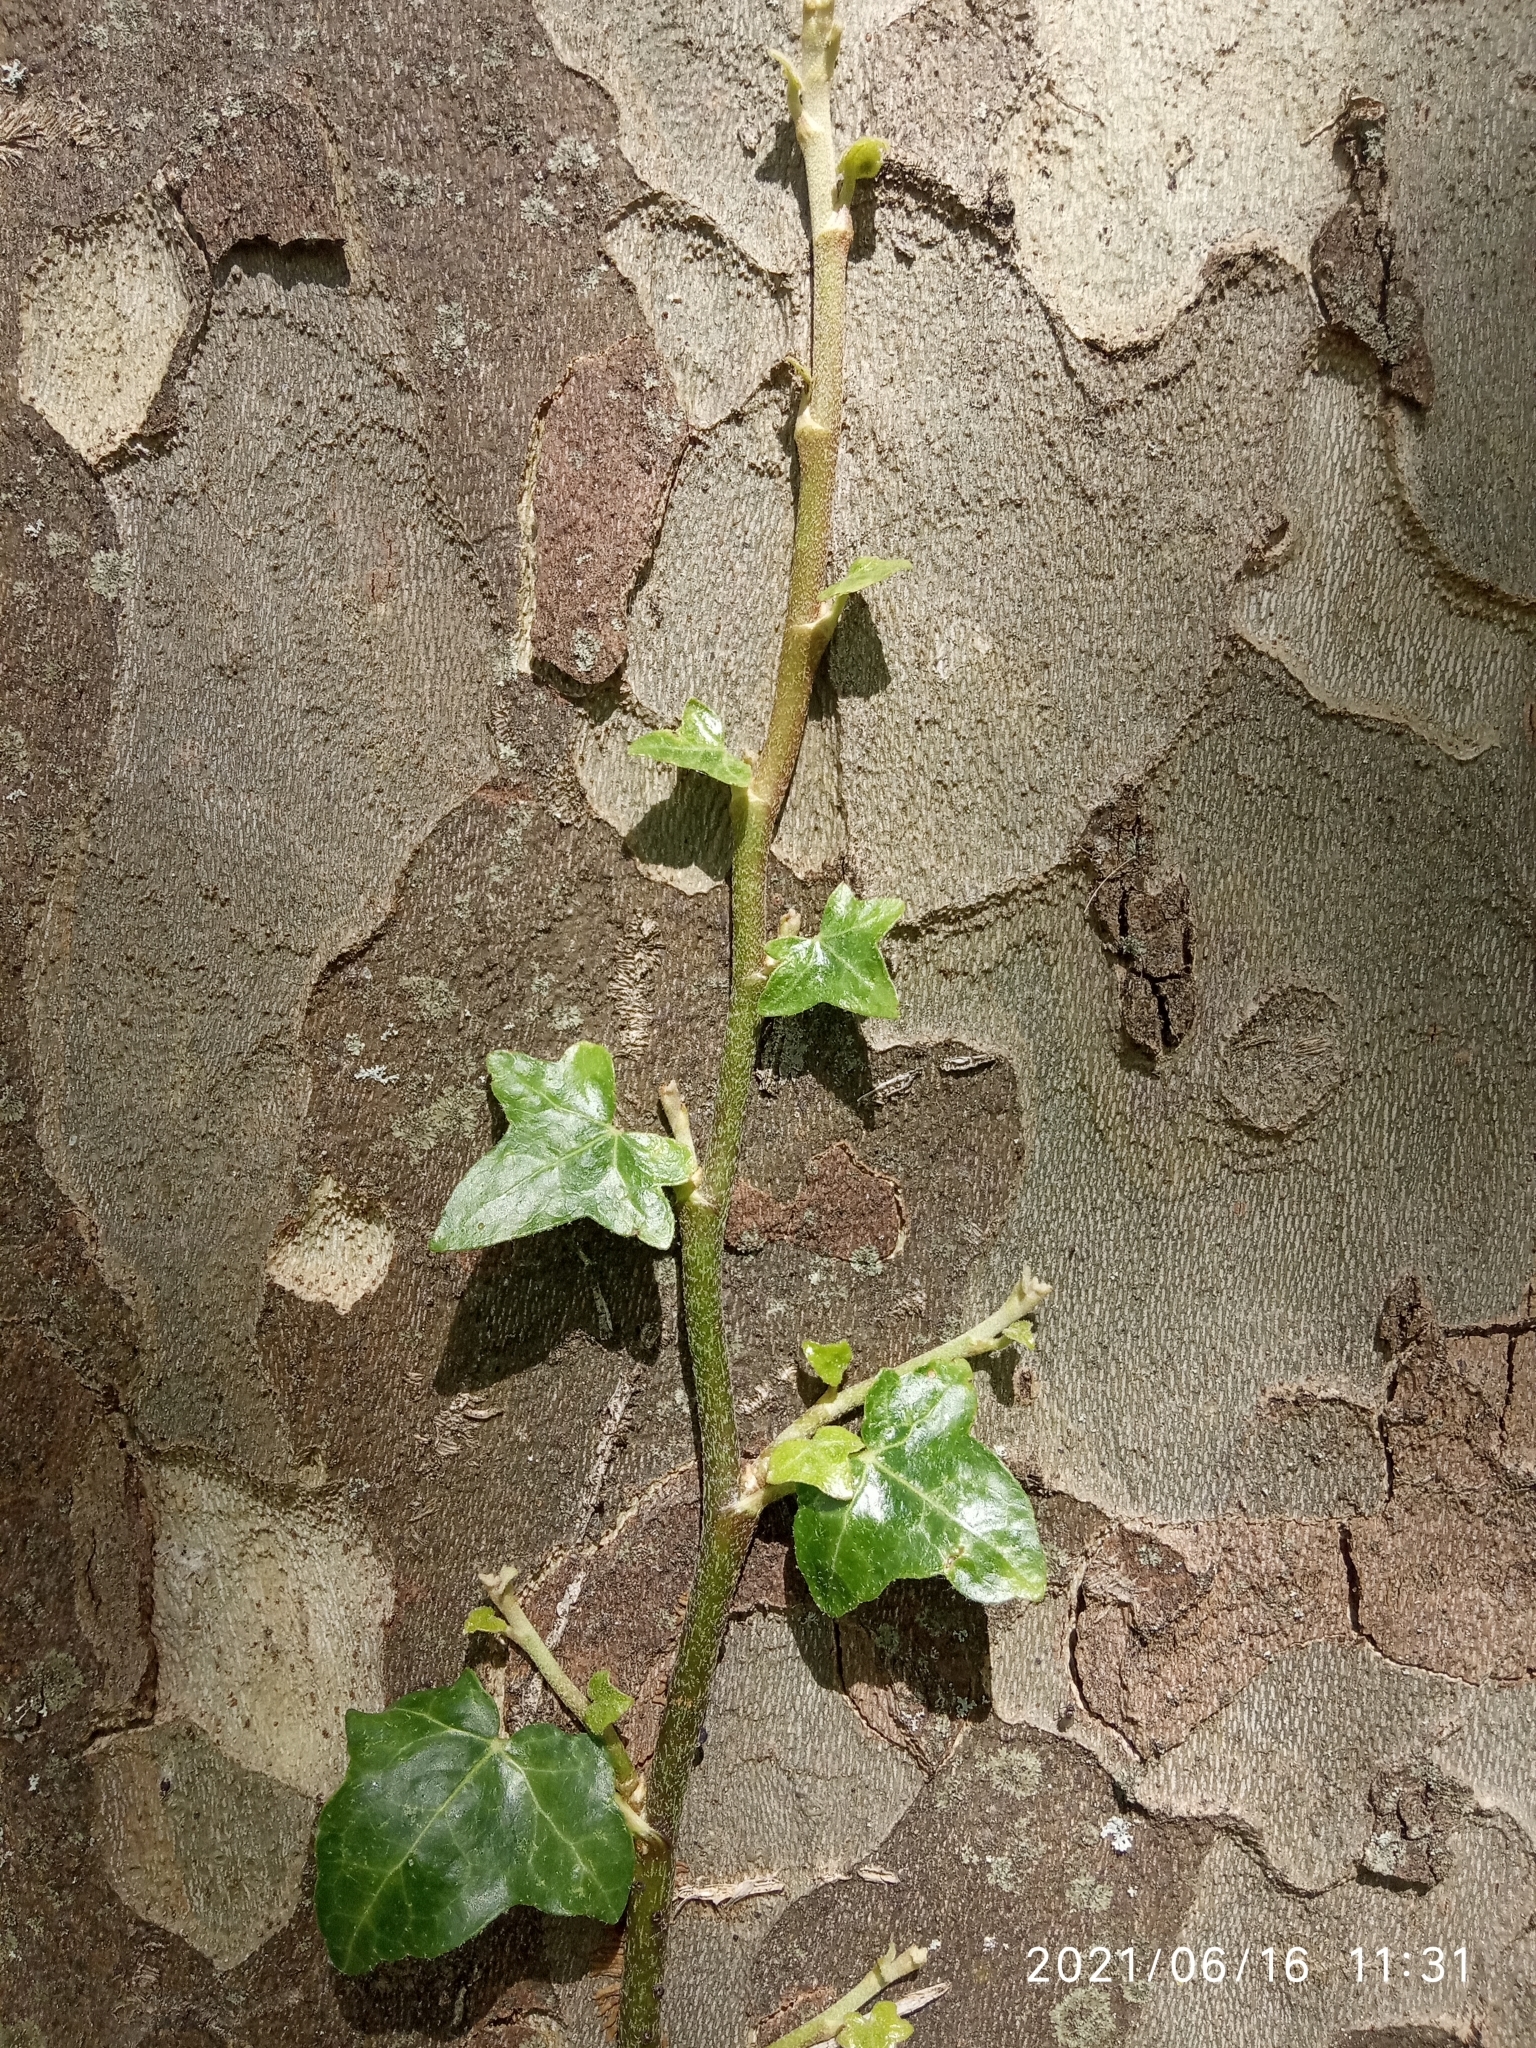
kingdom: Plantae
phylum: Tracheophyta
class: Magnoliopsida
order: Apiales
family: Araliaceae
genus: Hedera
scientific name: Hedera helix
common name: Ivy
